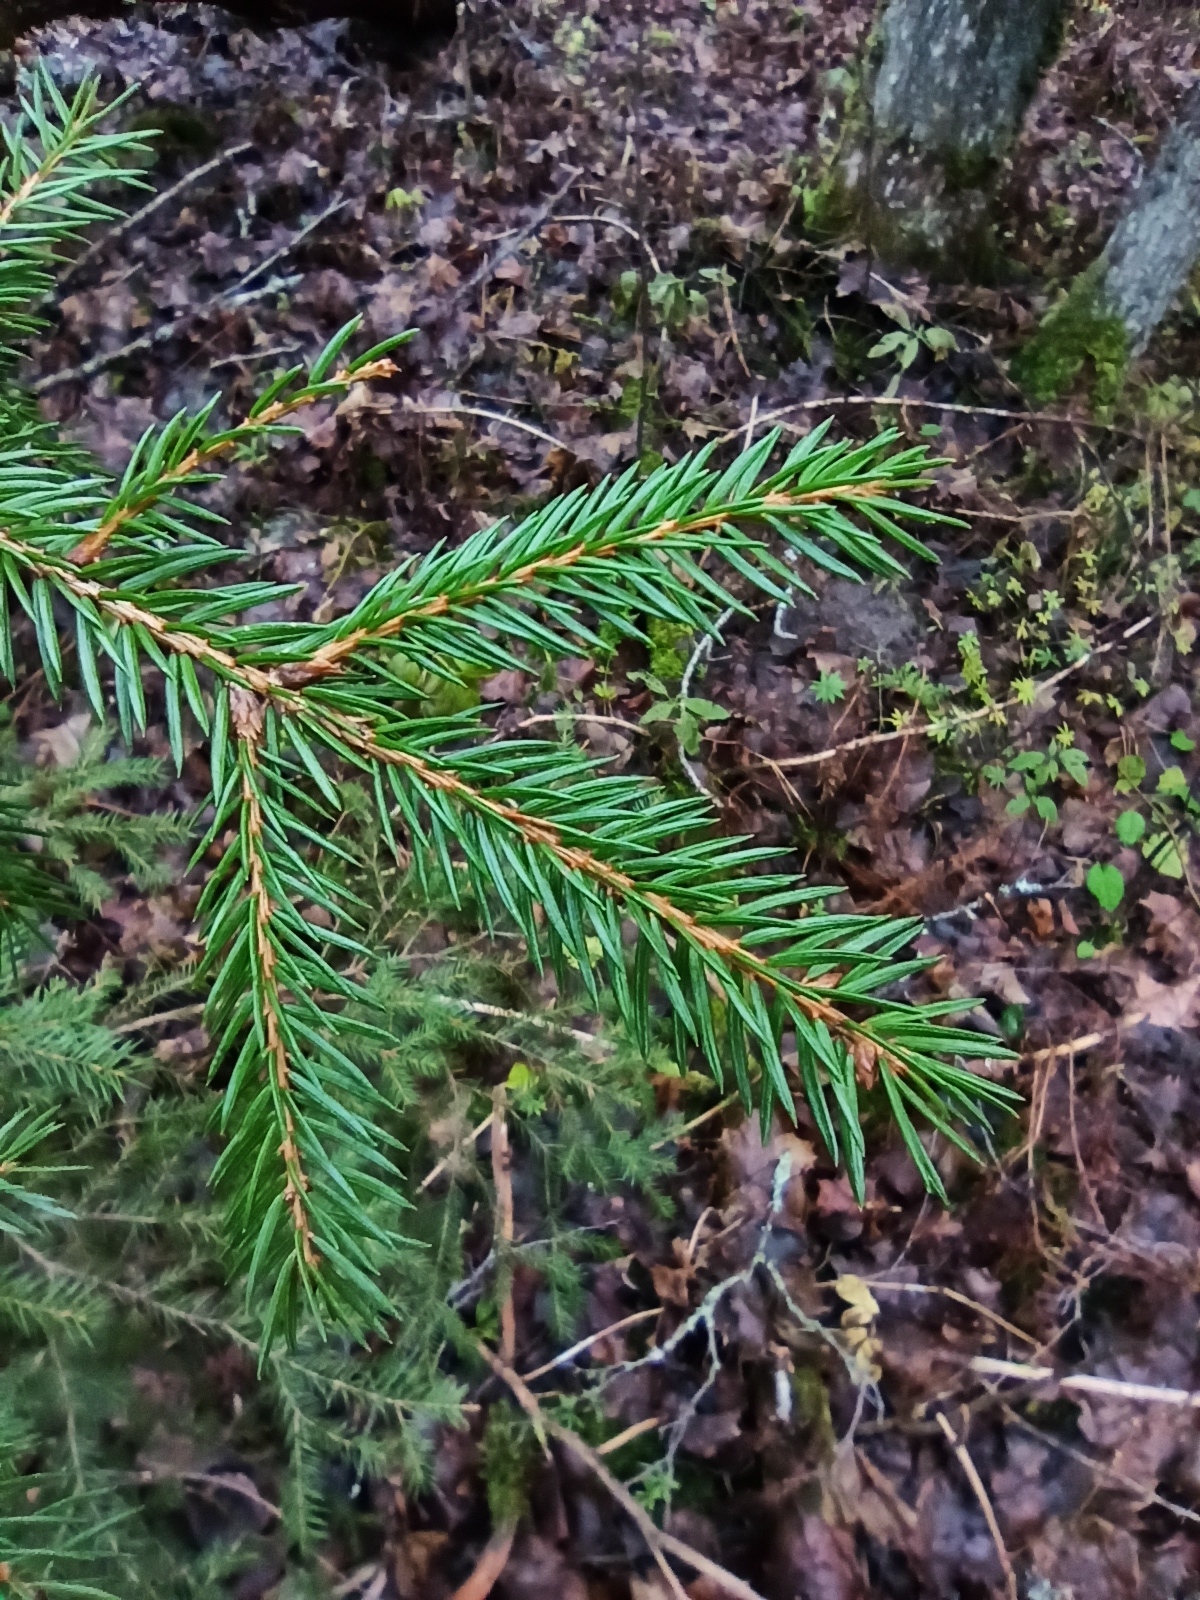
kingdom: Plantae
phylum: Tracheophyta
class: Pinopsida
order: Pinales
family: Pinaceae
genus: Picea
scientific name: Picea abies
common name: Norway spruce
